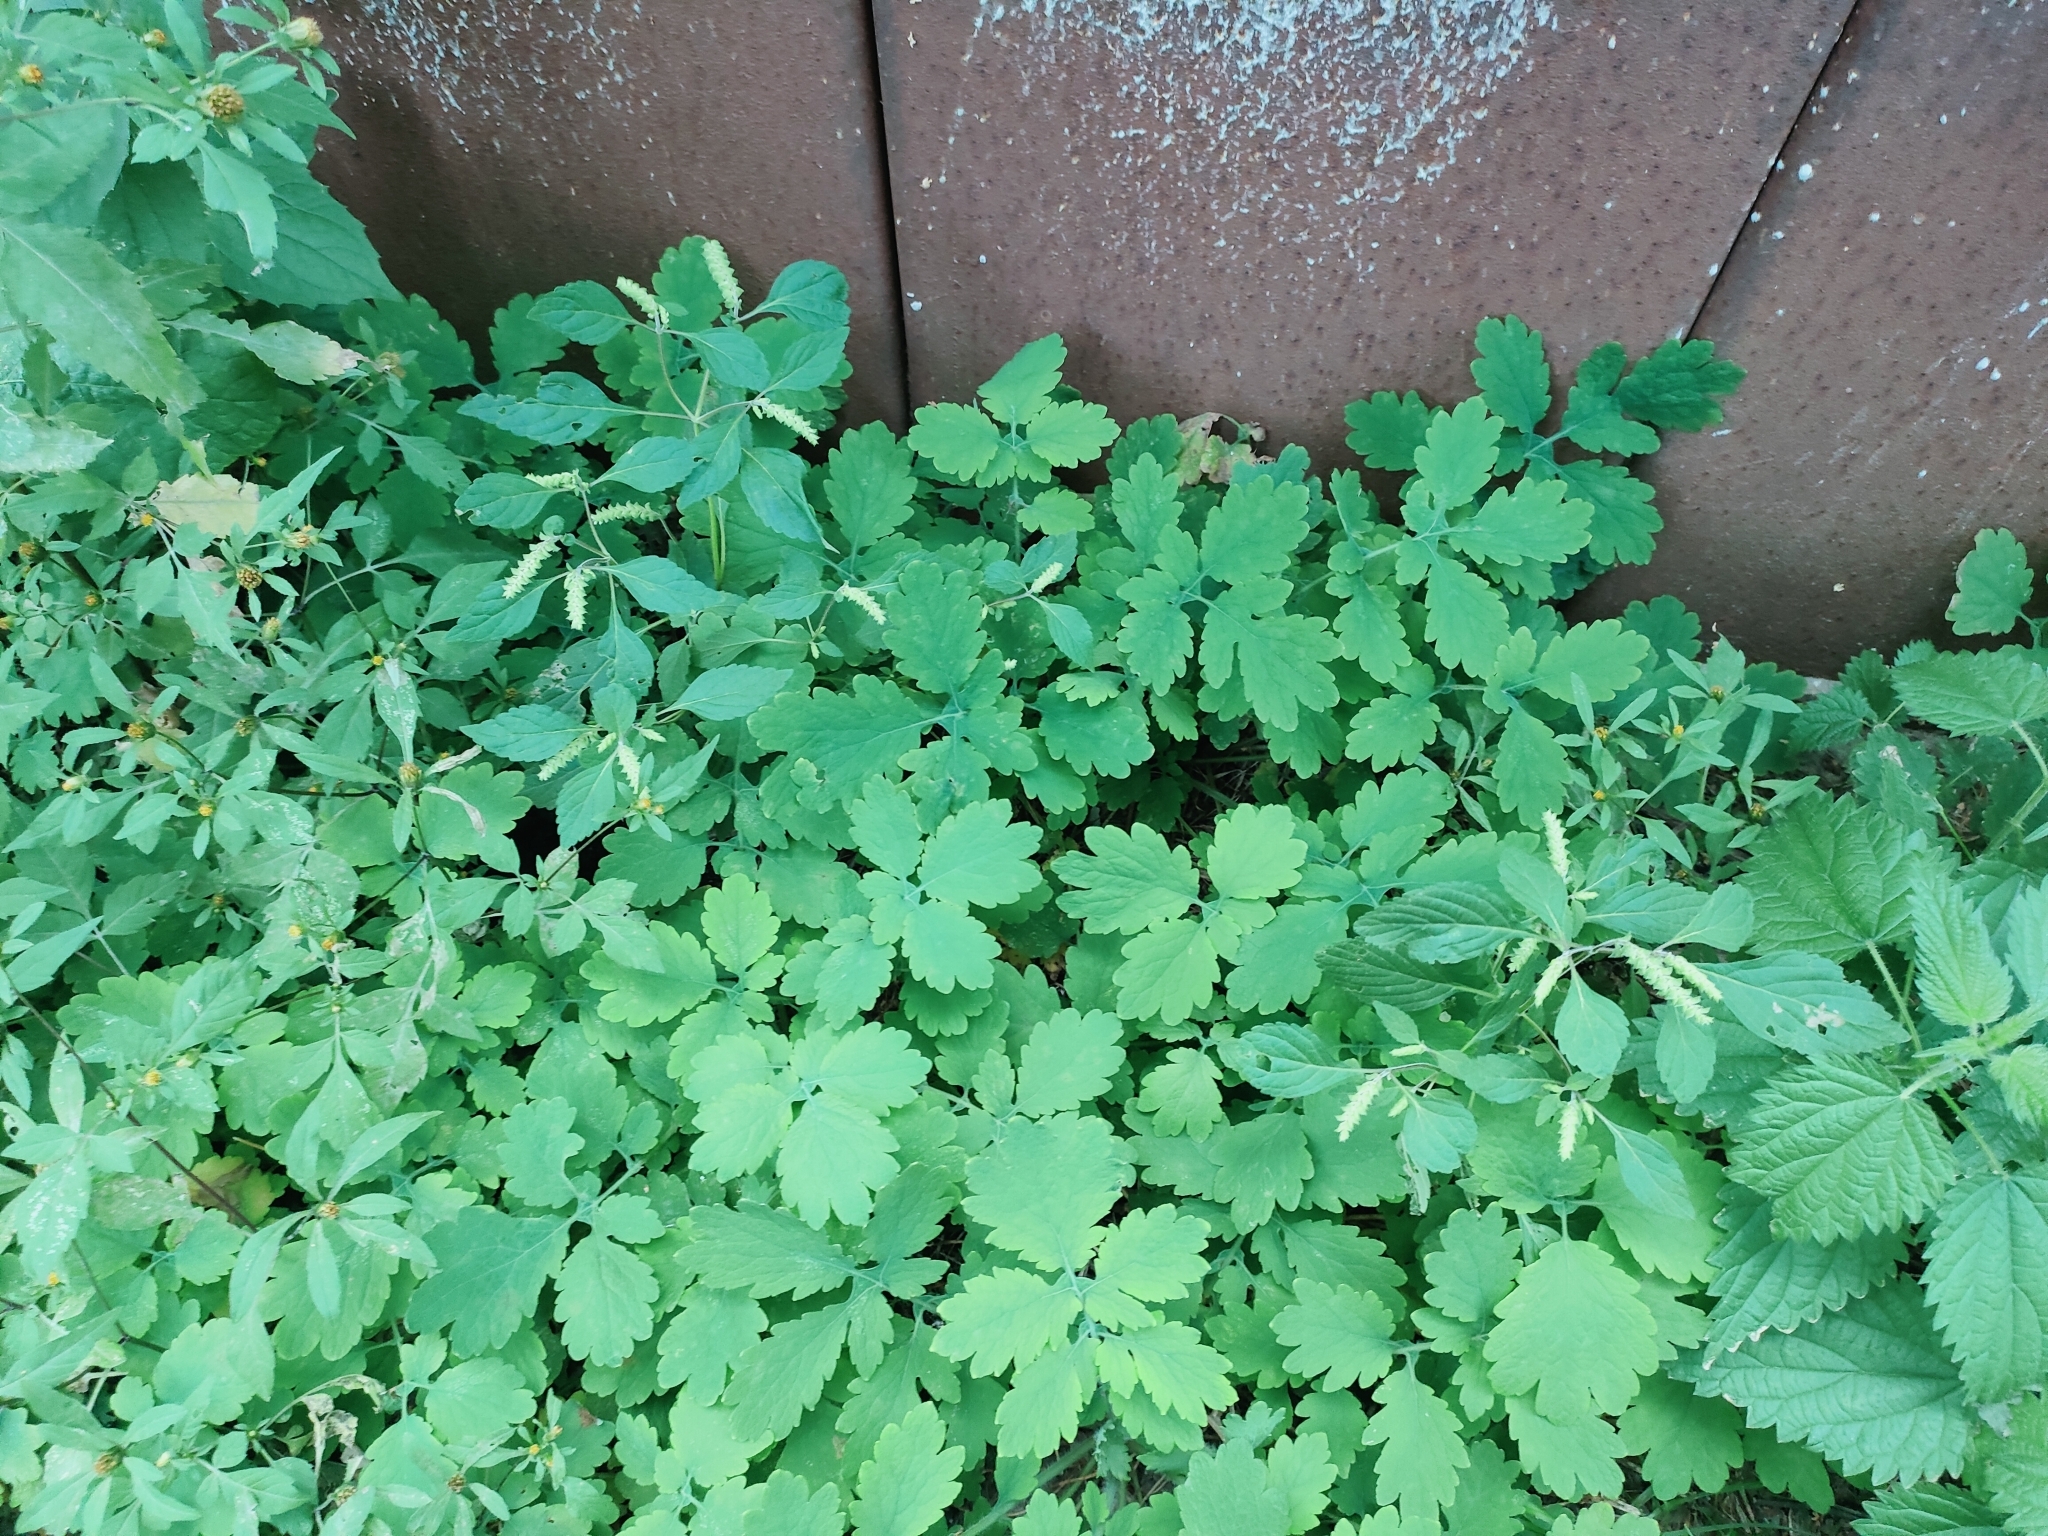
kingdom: Plantae
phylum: Tracheophyta
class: Magnoliopsida
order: Lamiales
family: Lamiaceae
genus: Elsholtzia
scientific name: Elsholtzia ciliata
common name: Ciliate elsholtzia
